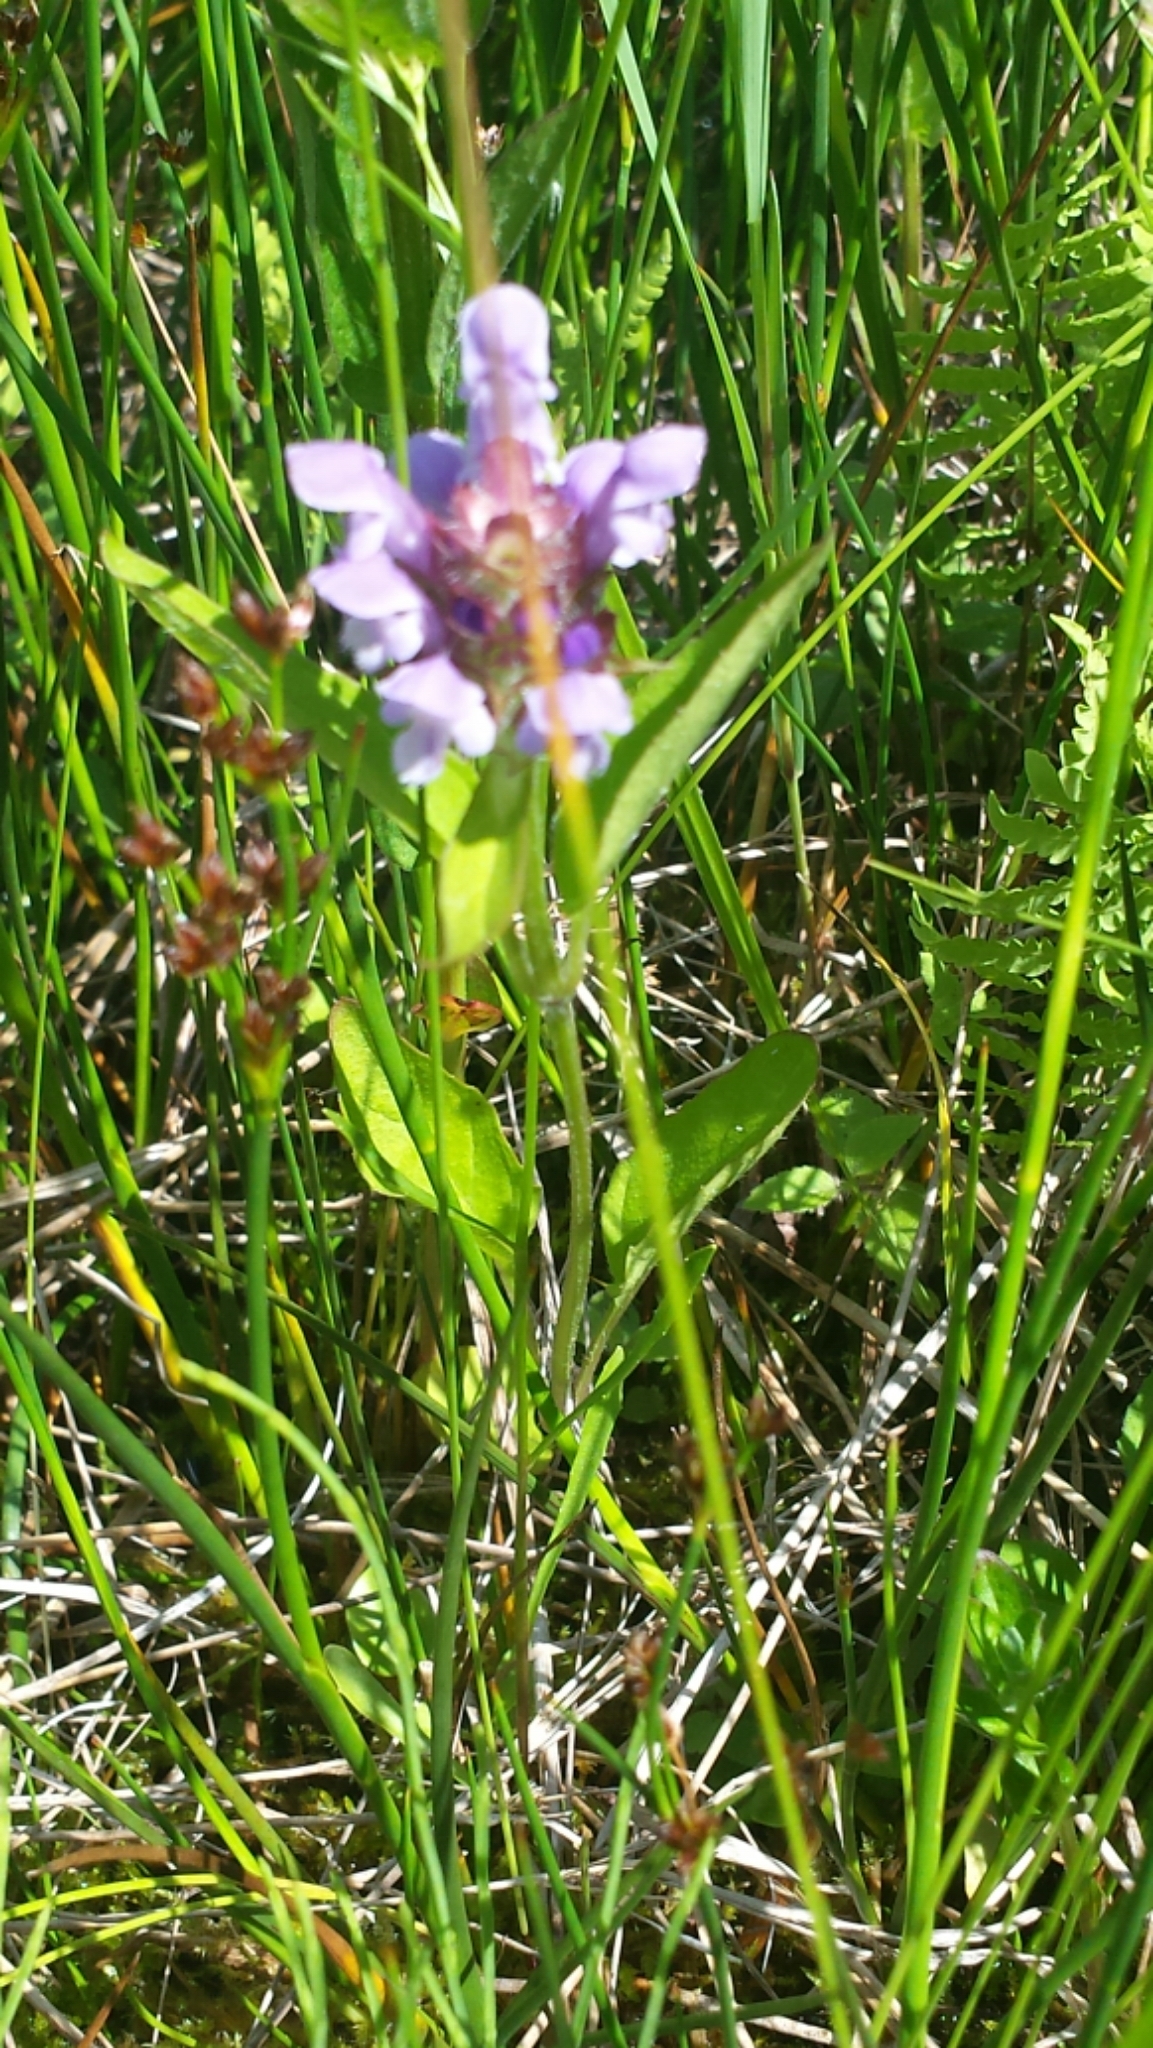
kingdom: Plantae
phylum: Tracheophyta
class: Magnoliopsida
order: Lamiales
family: Lamiaceae
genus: Prunella
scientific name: Prunella vulgaris
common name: Heal-all
